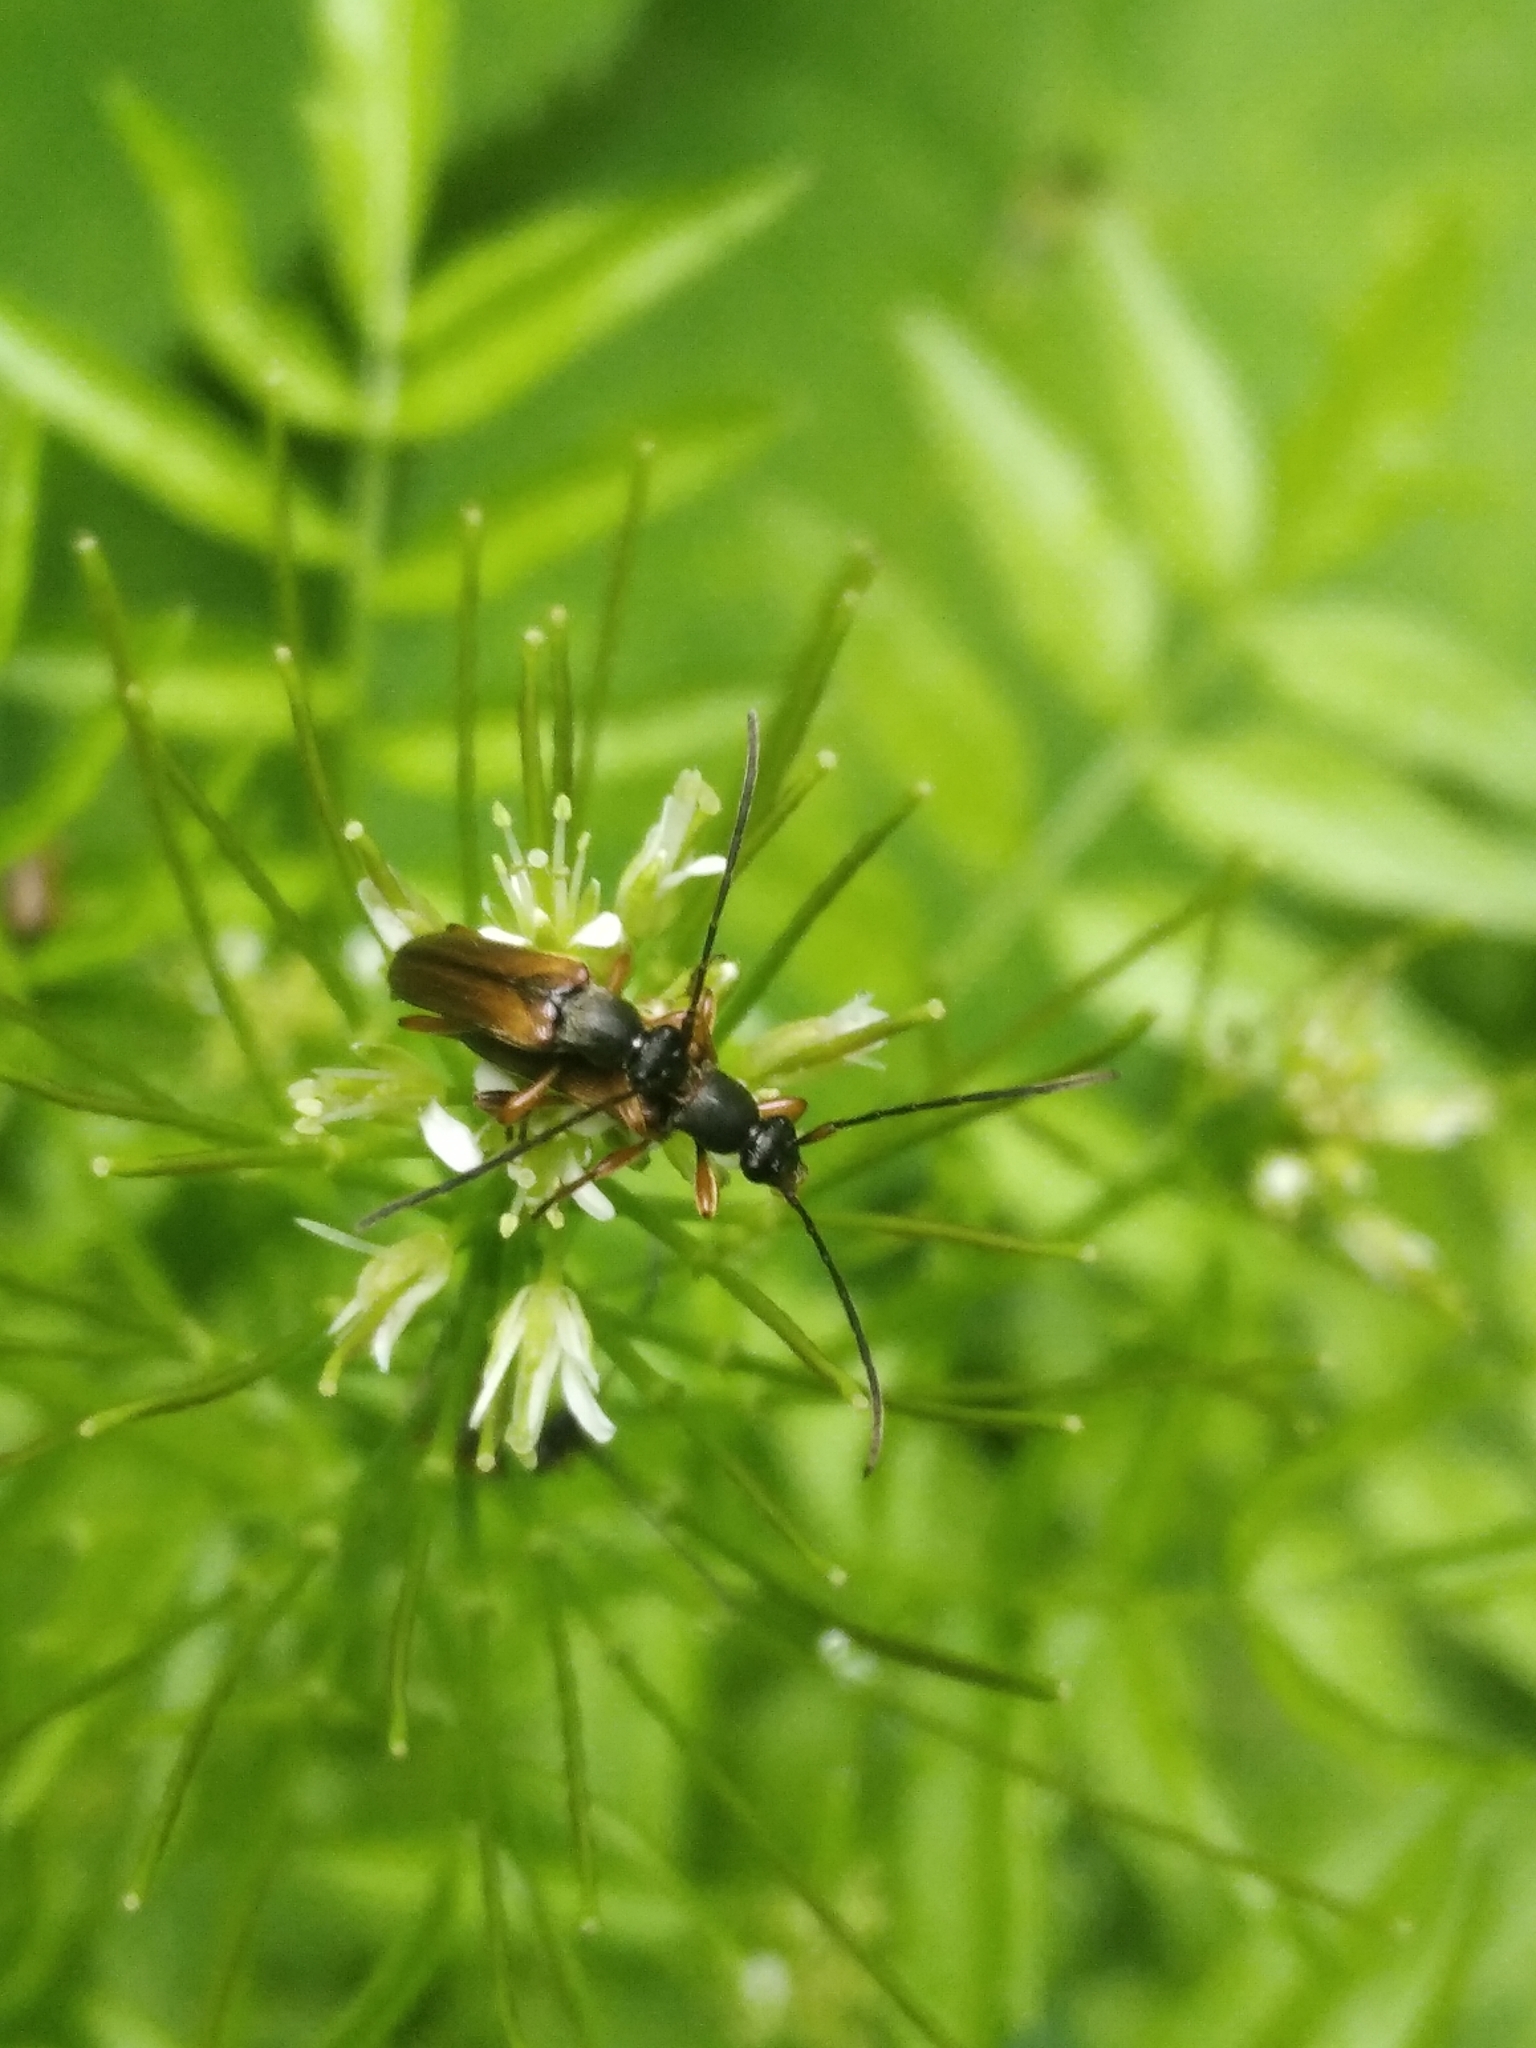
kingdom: Animalia
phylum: Arthropoda
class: Insecta
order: Coleoptera
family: Cerambycidae
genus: Alosterna
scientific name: Alosterna tabacicolor
